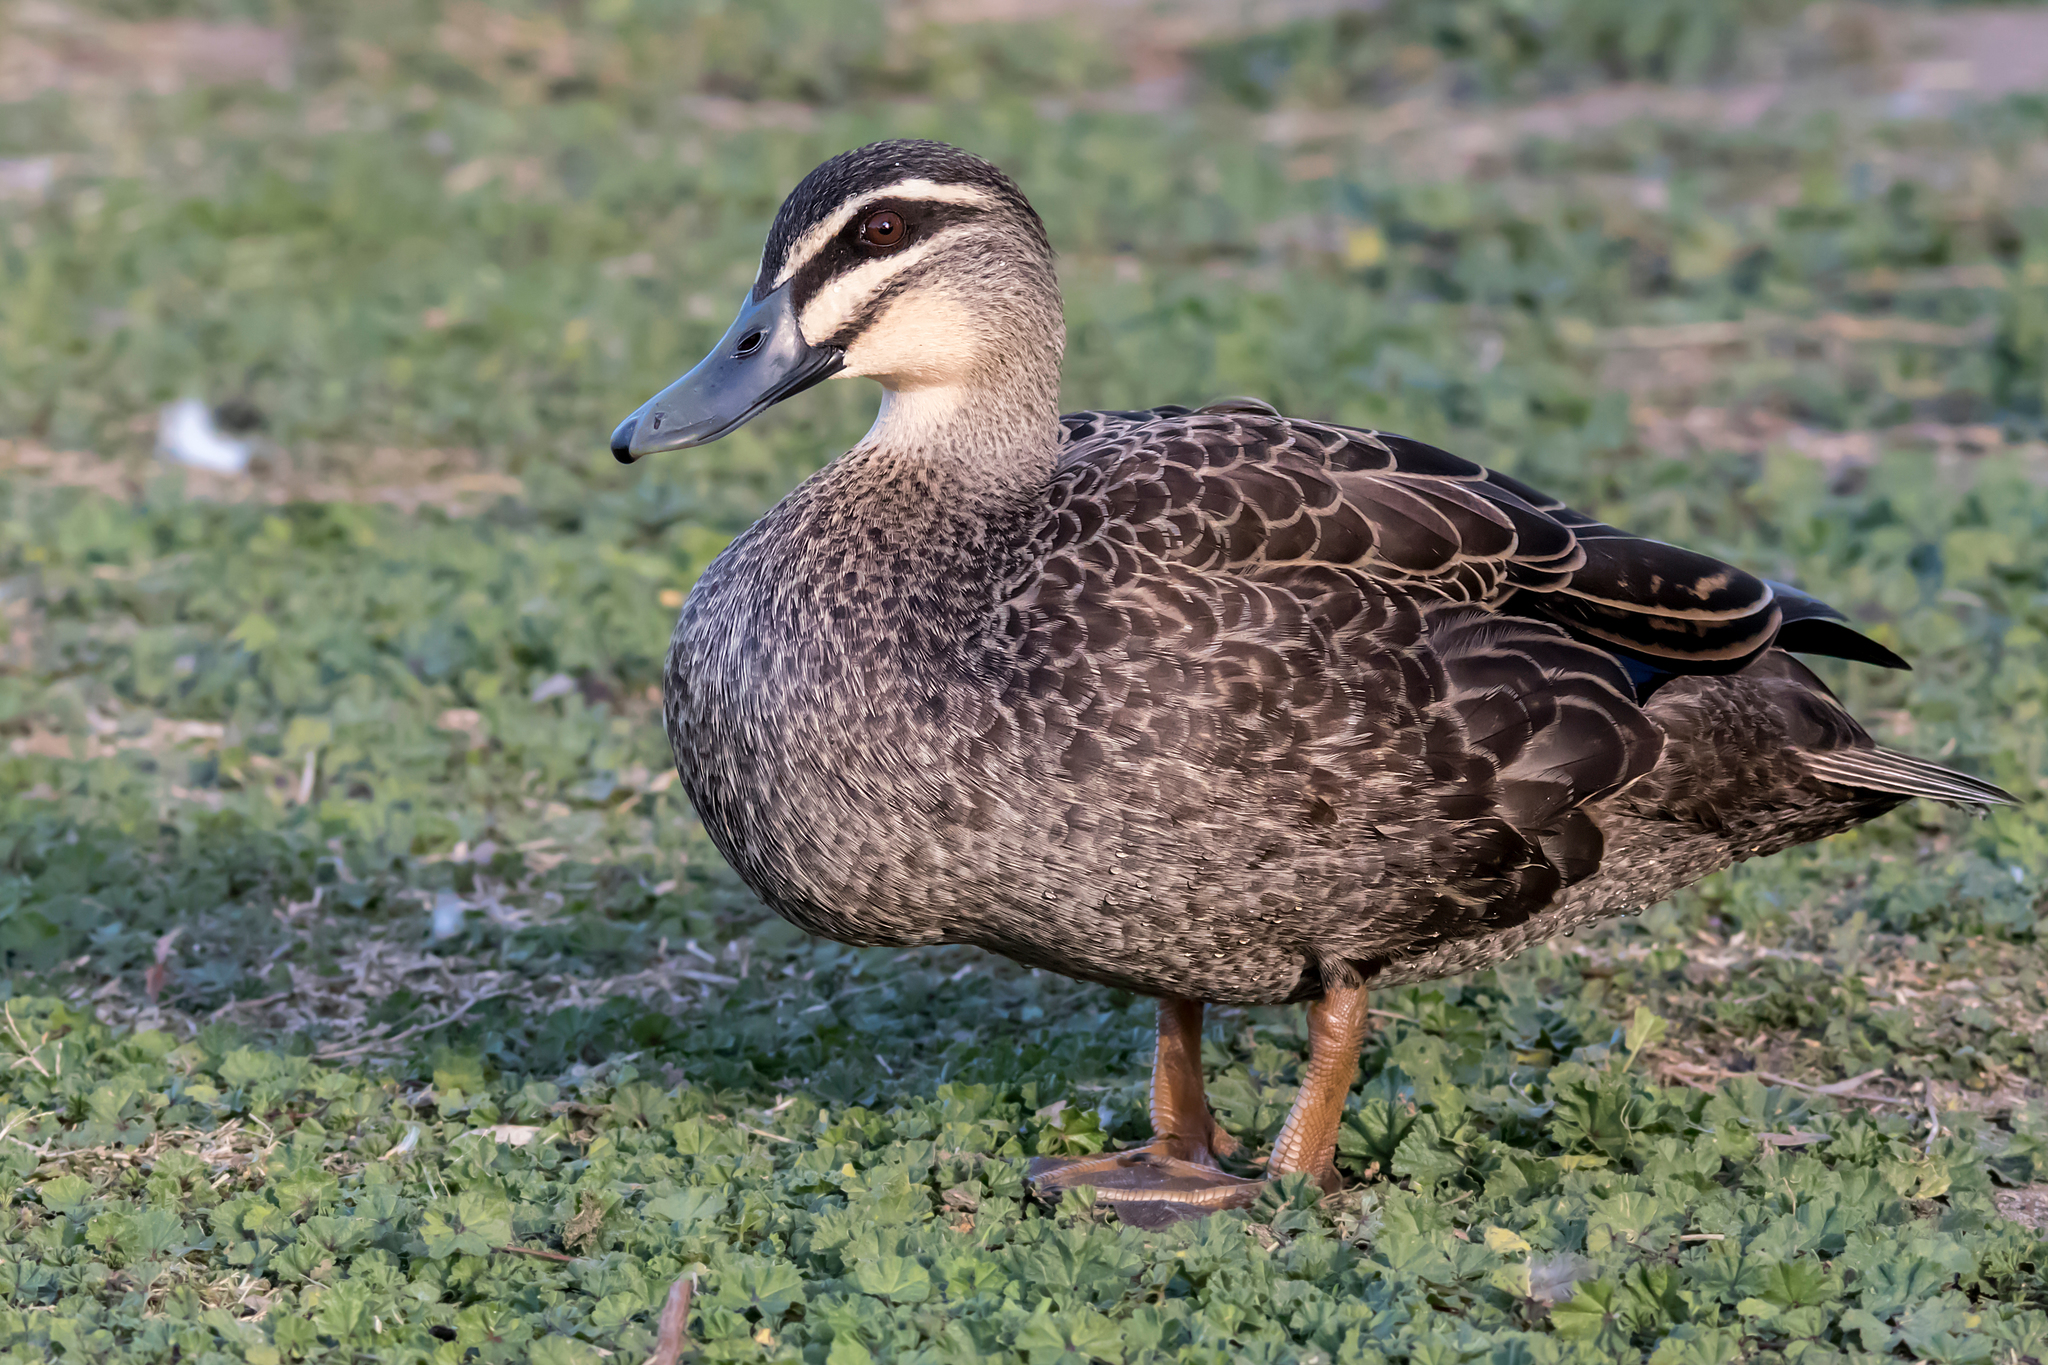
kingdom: Animalia
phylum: Chordata
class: Aves
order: Anseriformes
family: Anatidae
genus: Anas
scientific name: Anas superciliosa
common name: Pacific black duck
